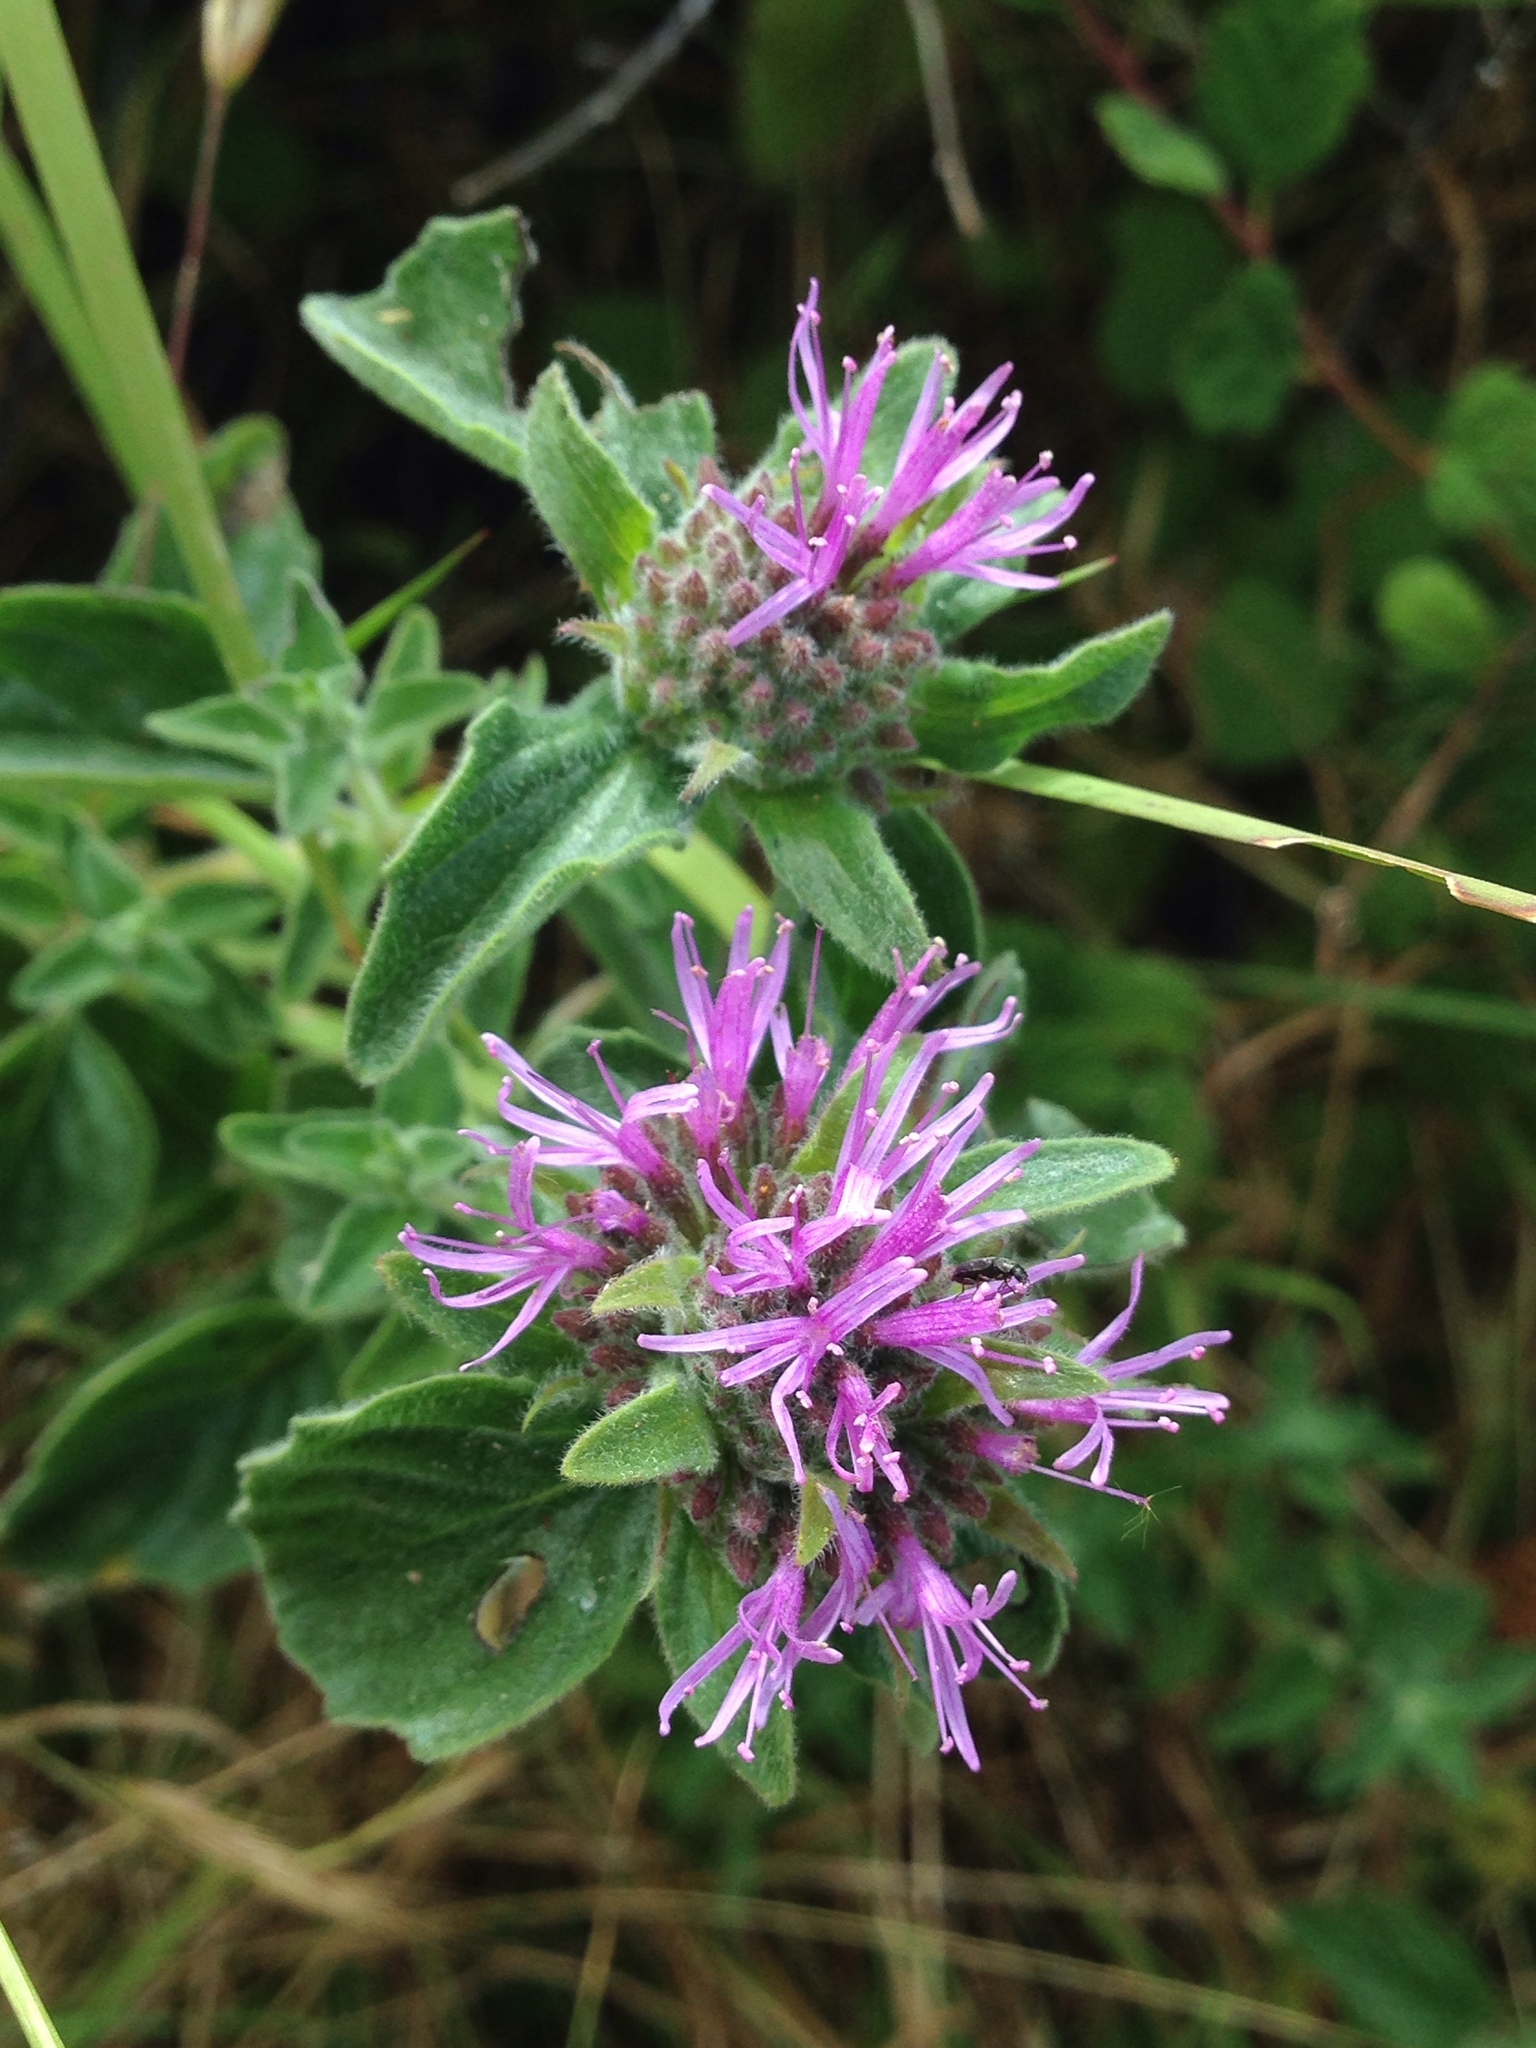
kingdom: Plantae
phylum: Tracheophyta
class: Magnoliopsida
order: Lamiales
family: Lamiaceae
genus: Monardella
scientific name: Monardella odoratissima
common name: Pacific monardella
